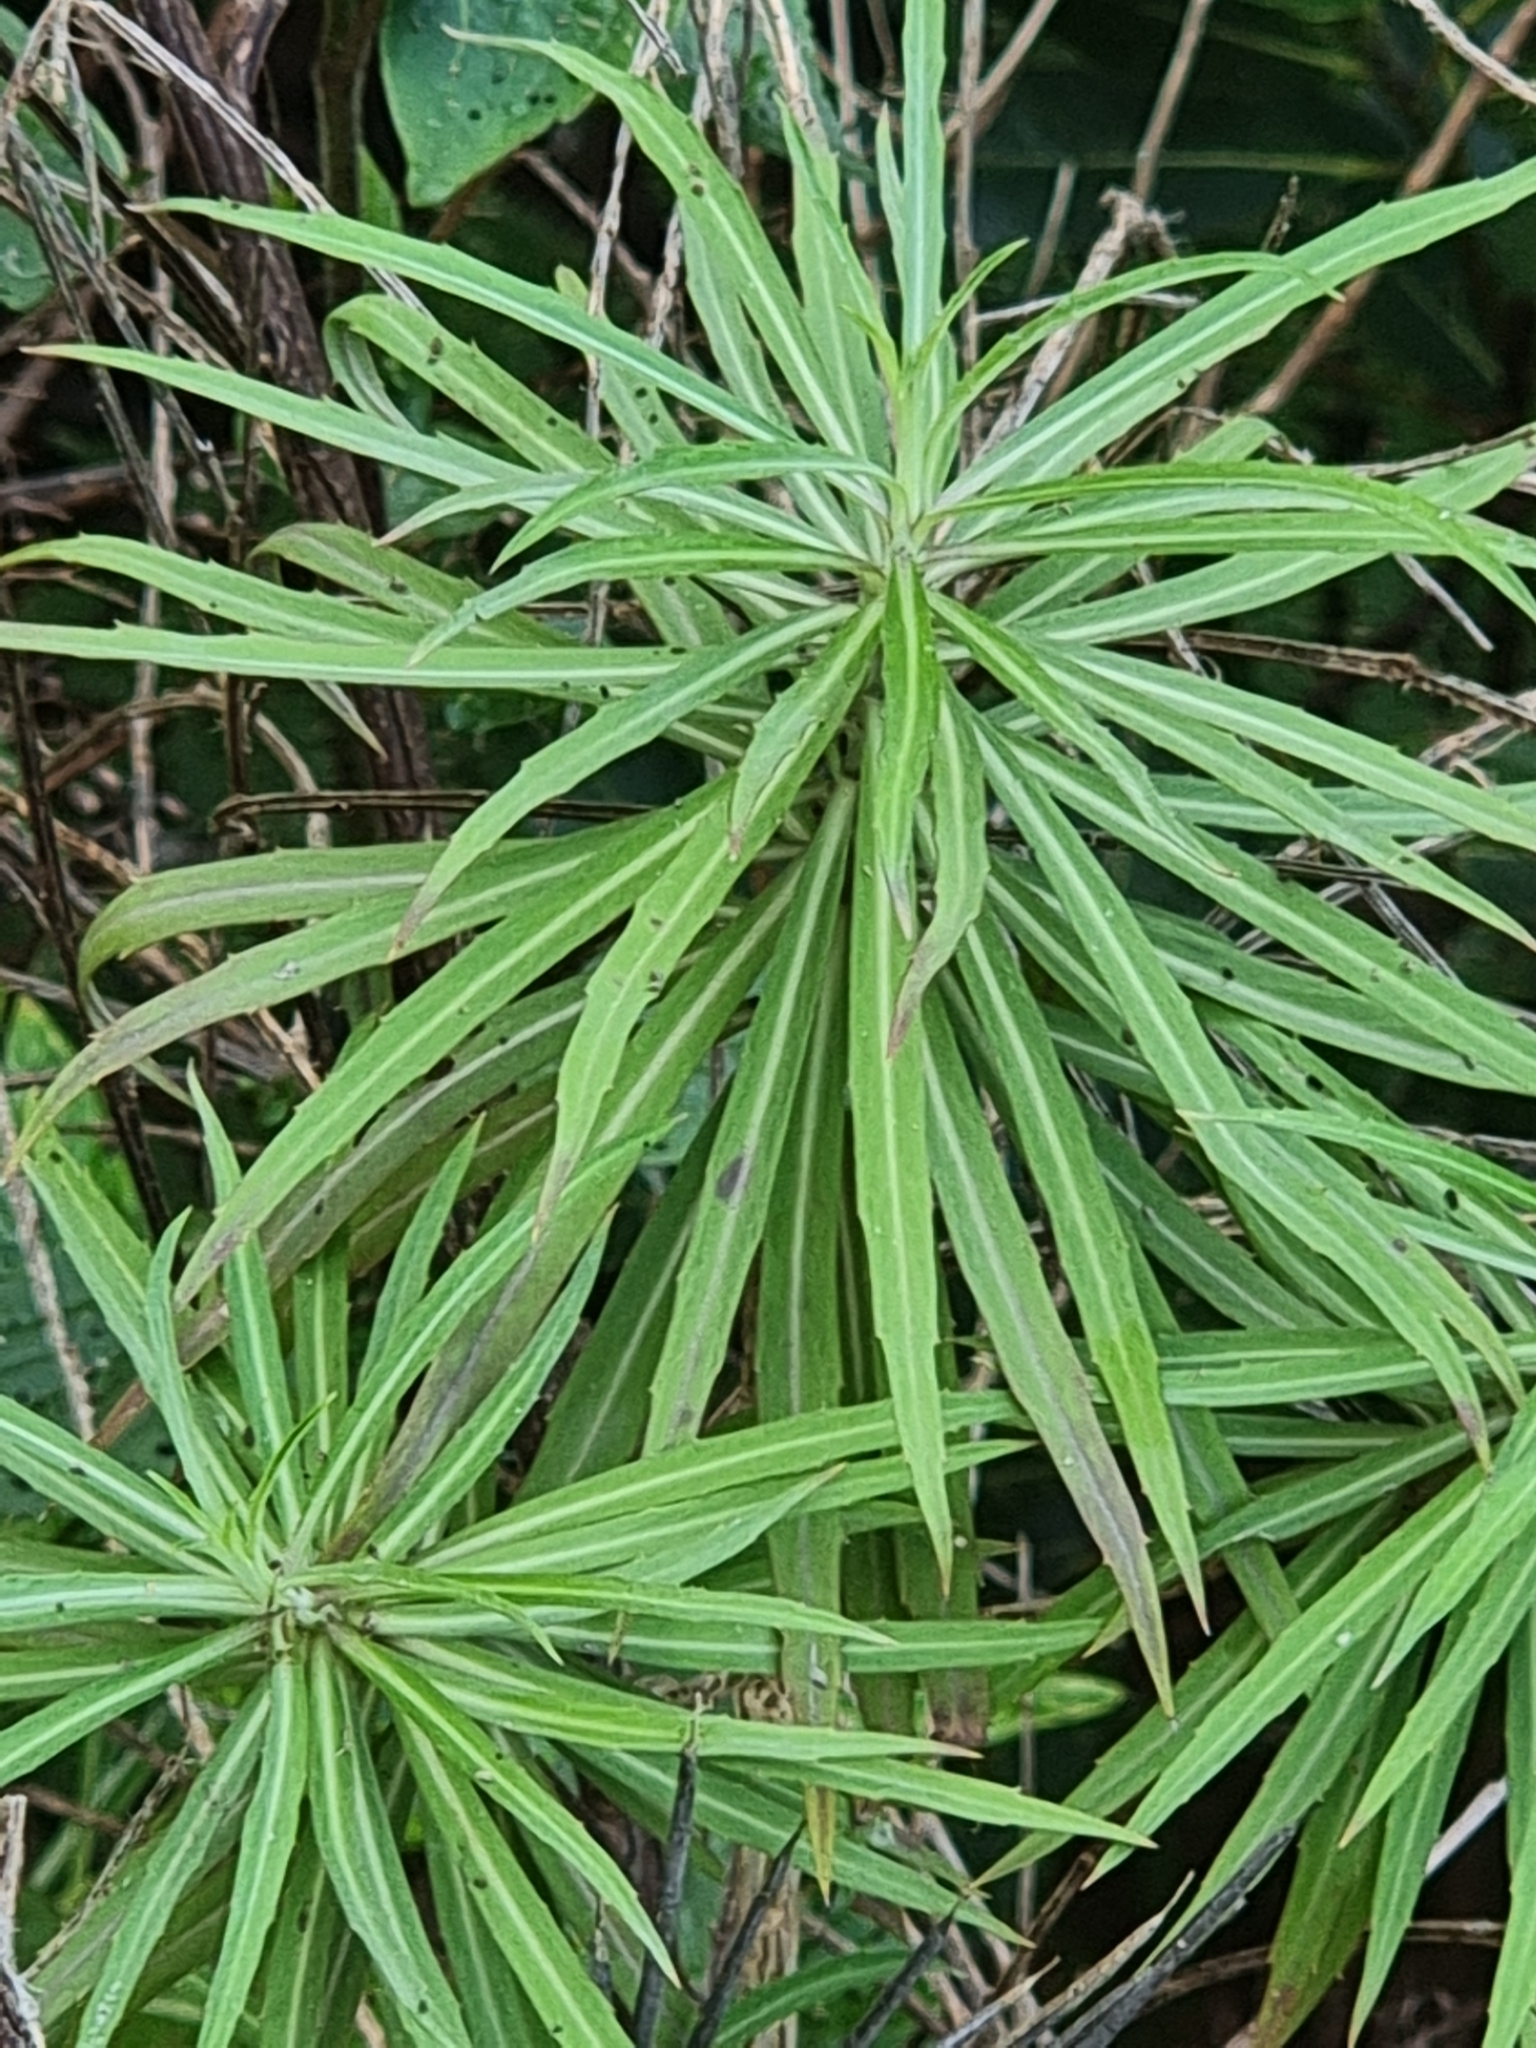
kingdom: Plantae
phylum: Tracheophyta
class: Magnoliopsida
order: Brassicales
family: Brassicaceae
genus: Erysimum
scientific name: Erysimum bicolor
